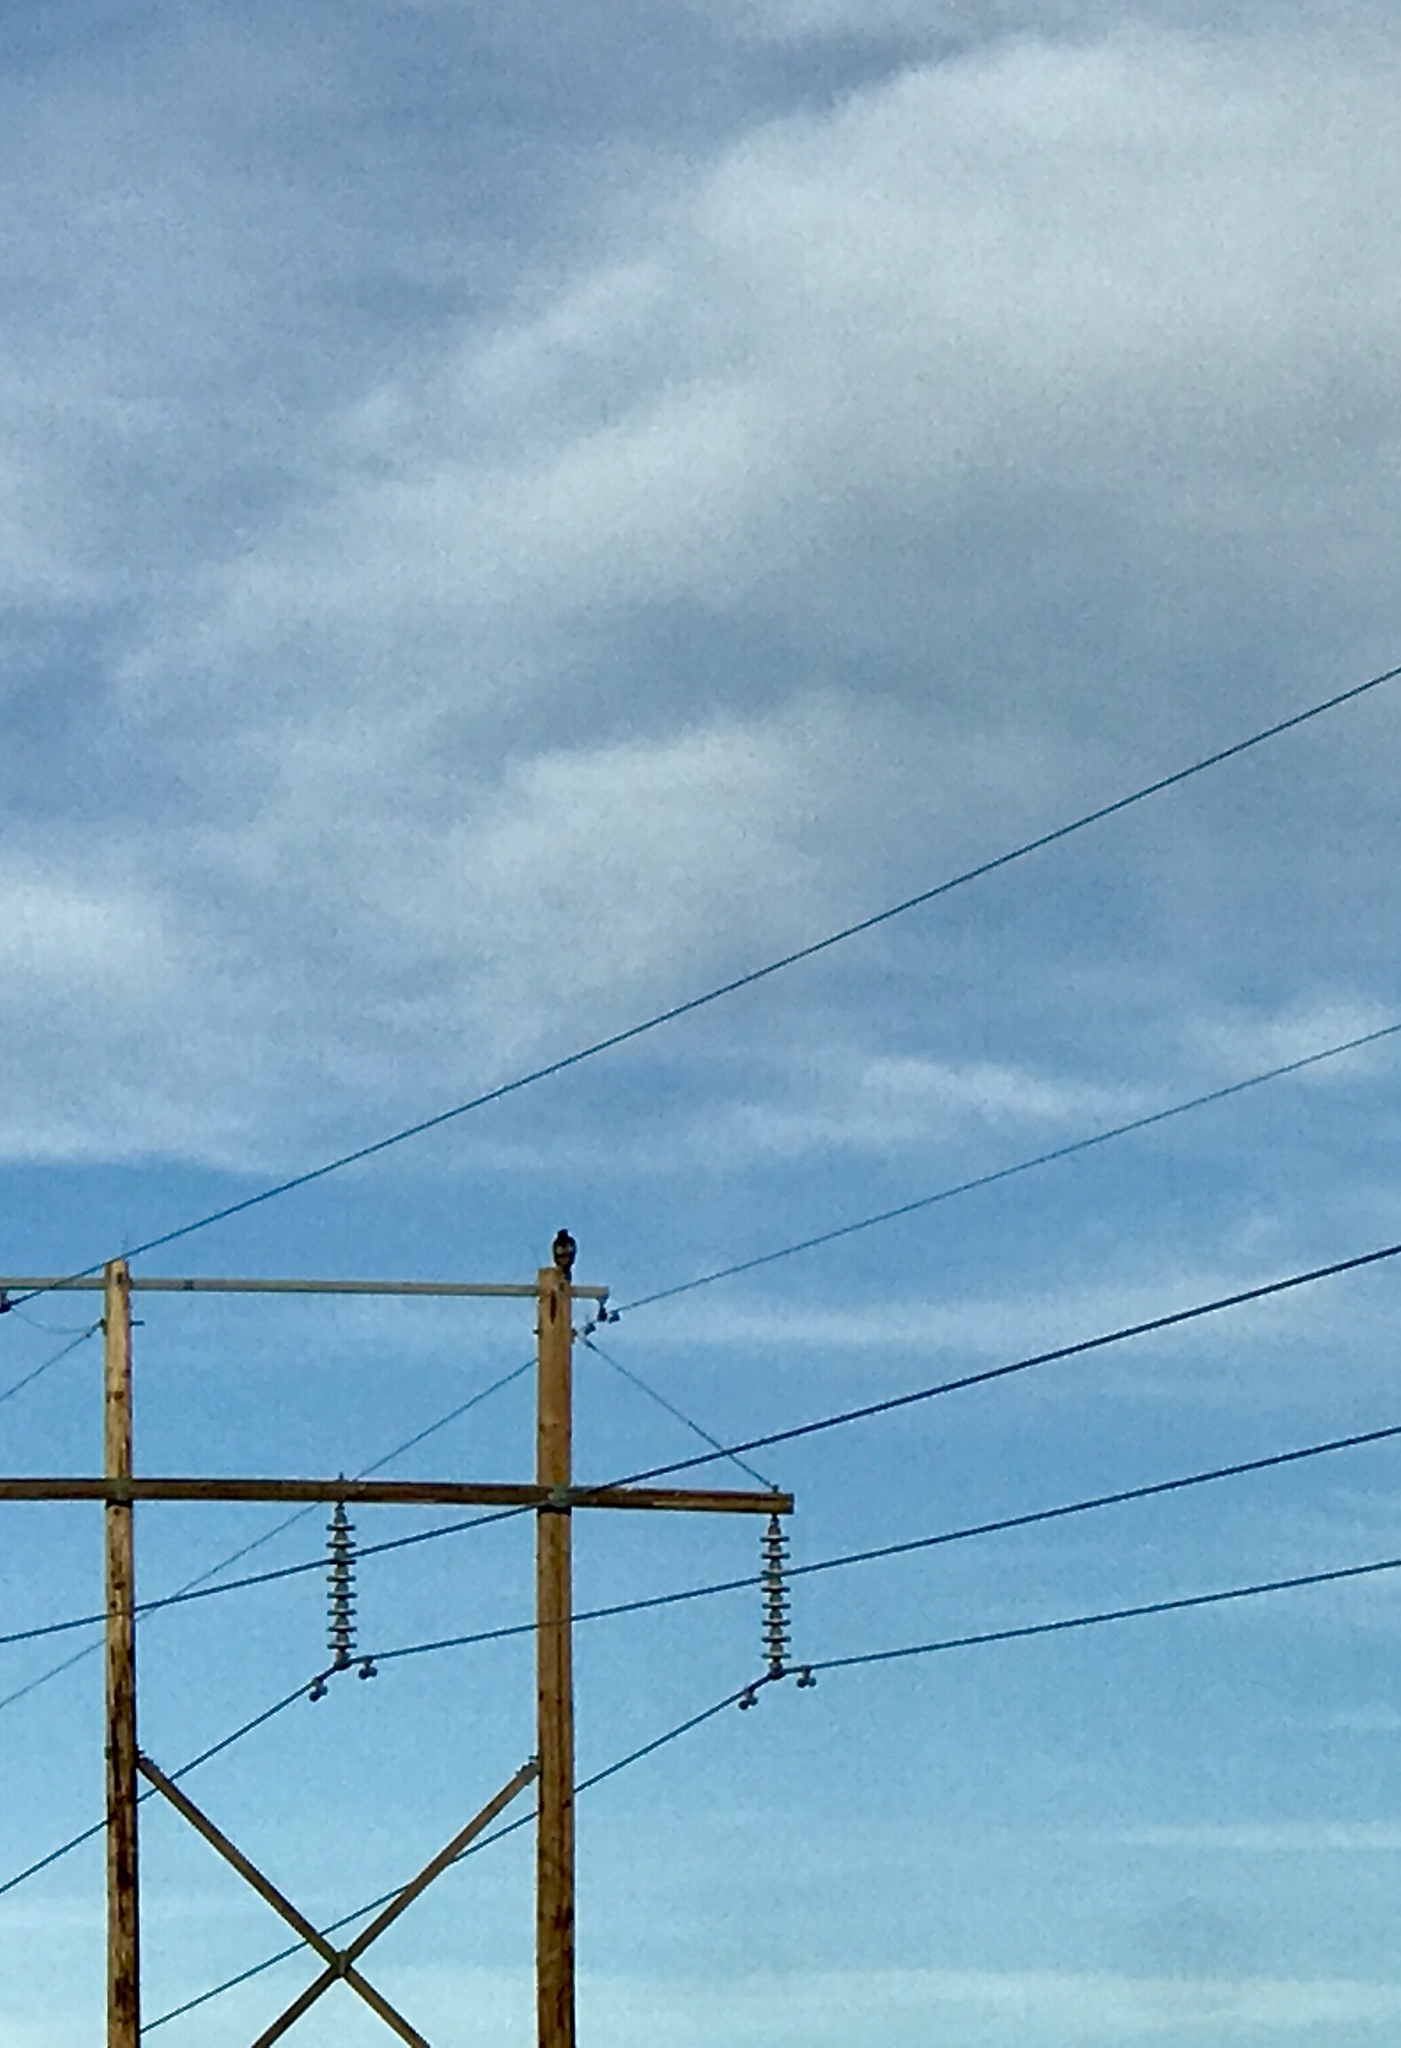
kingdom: Animalia
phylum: Chordata
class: Aves
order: Accipitriformes
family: Accipitridae
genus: Buteo
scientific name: Buteo jamaicensis
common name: Red-tailed hawk
